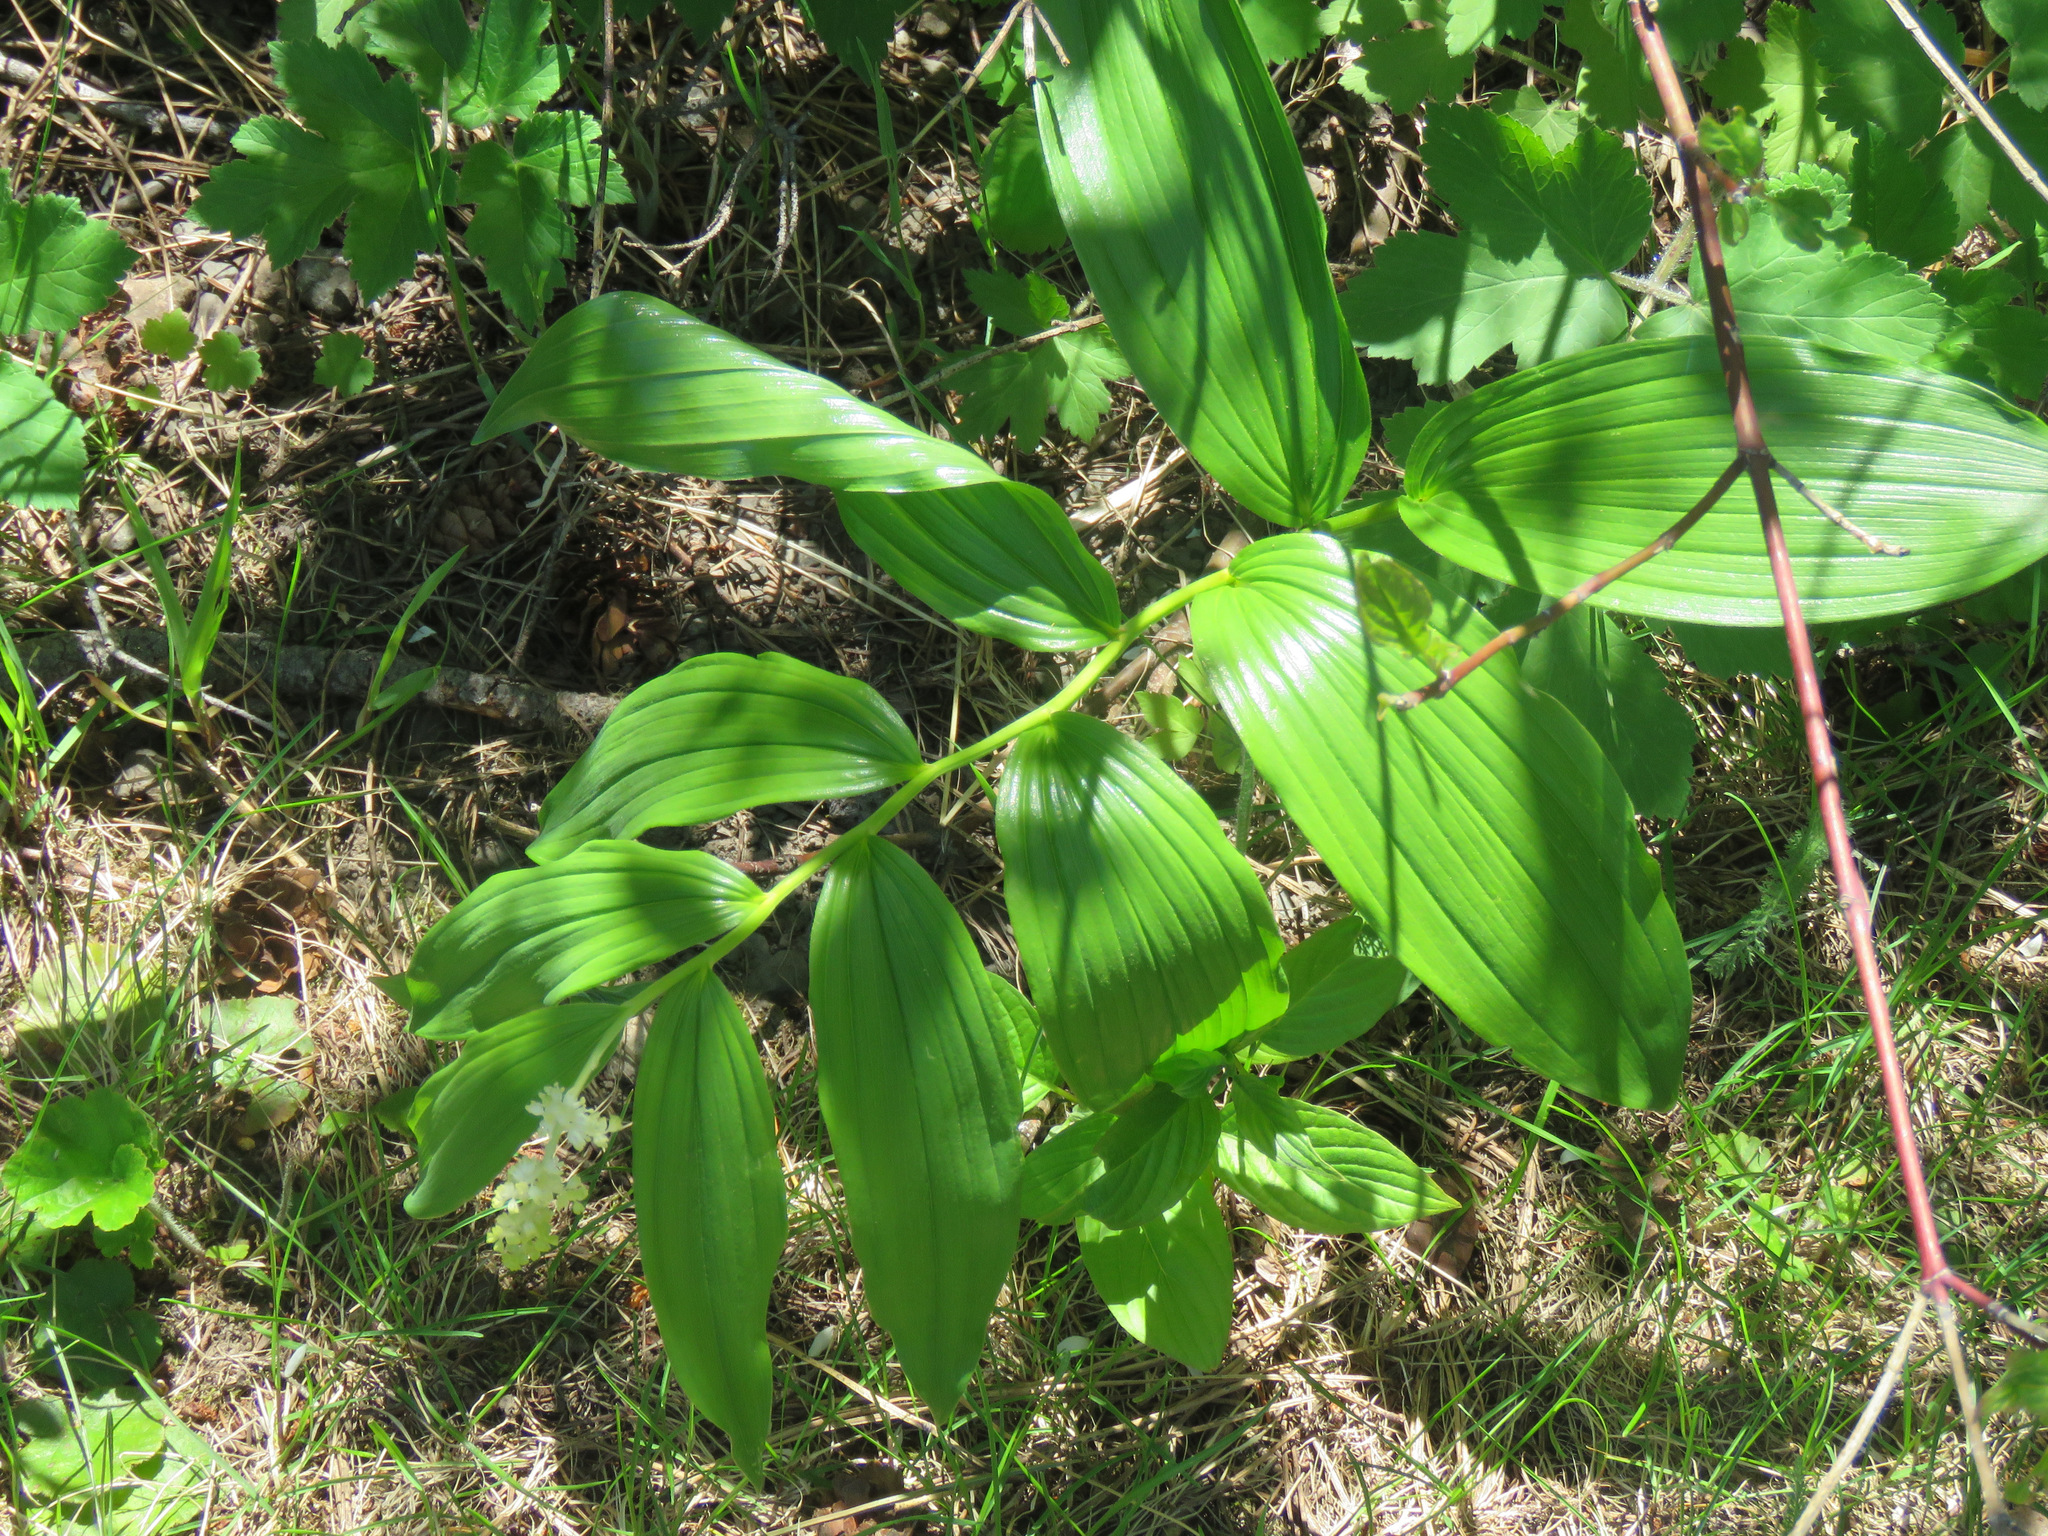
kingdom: Plantae
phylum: Tracheophyta
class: Liliopsida
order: Asparagales
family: Asparagaceae
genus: Maianthemum
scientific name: Maianthemum racemosum
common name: False spikenard
